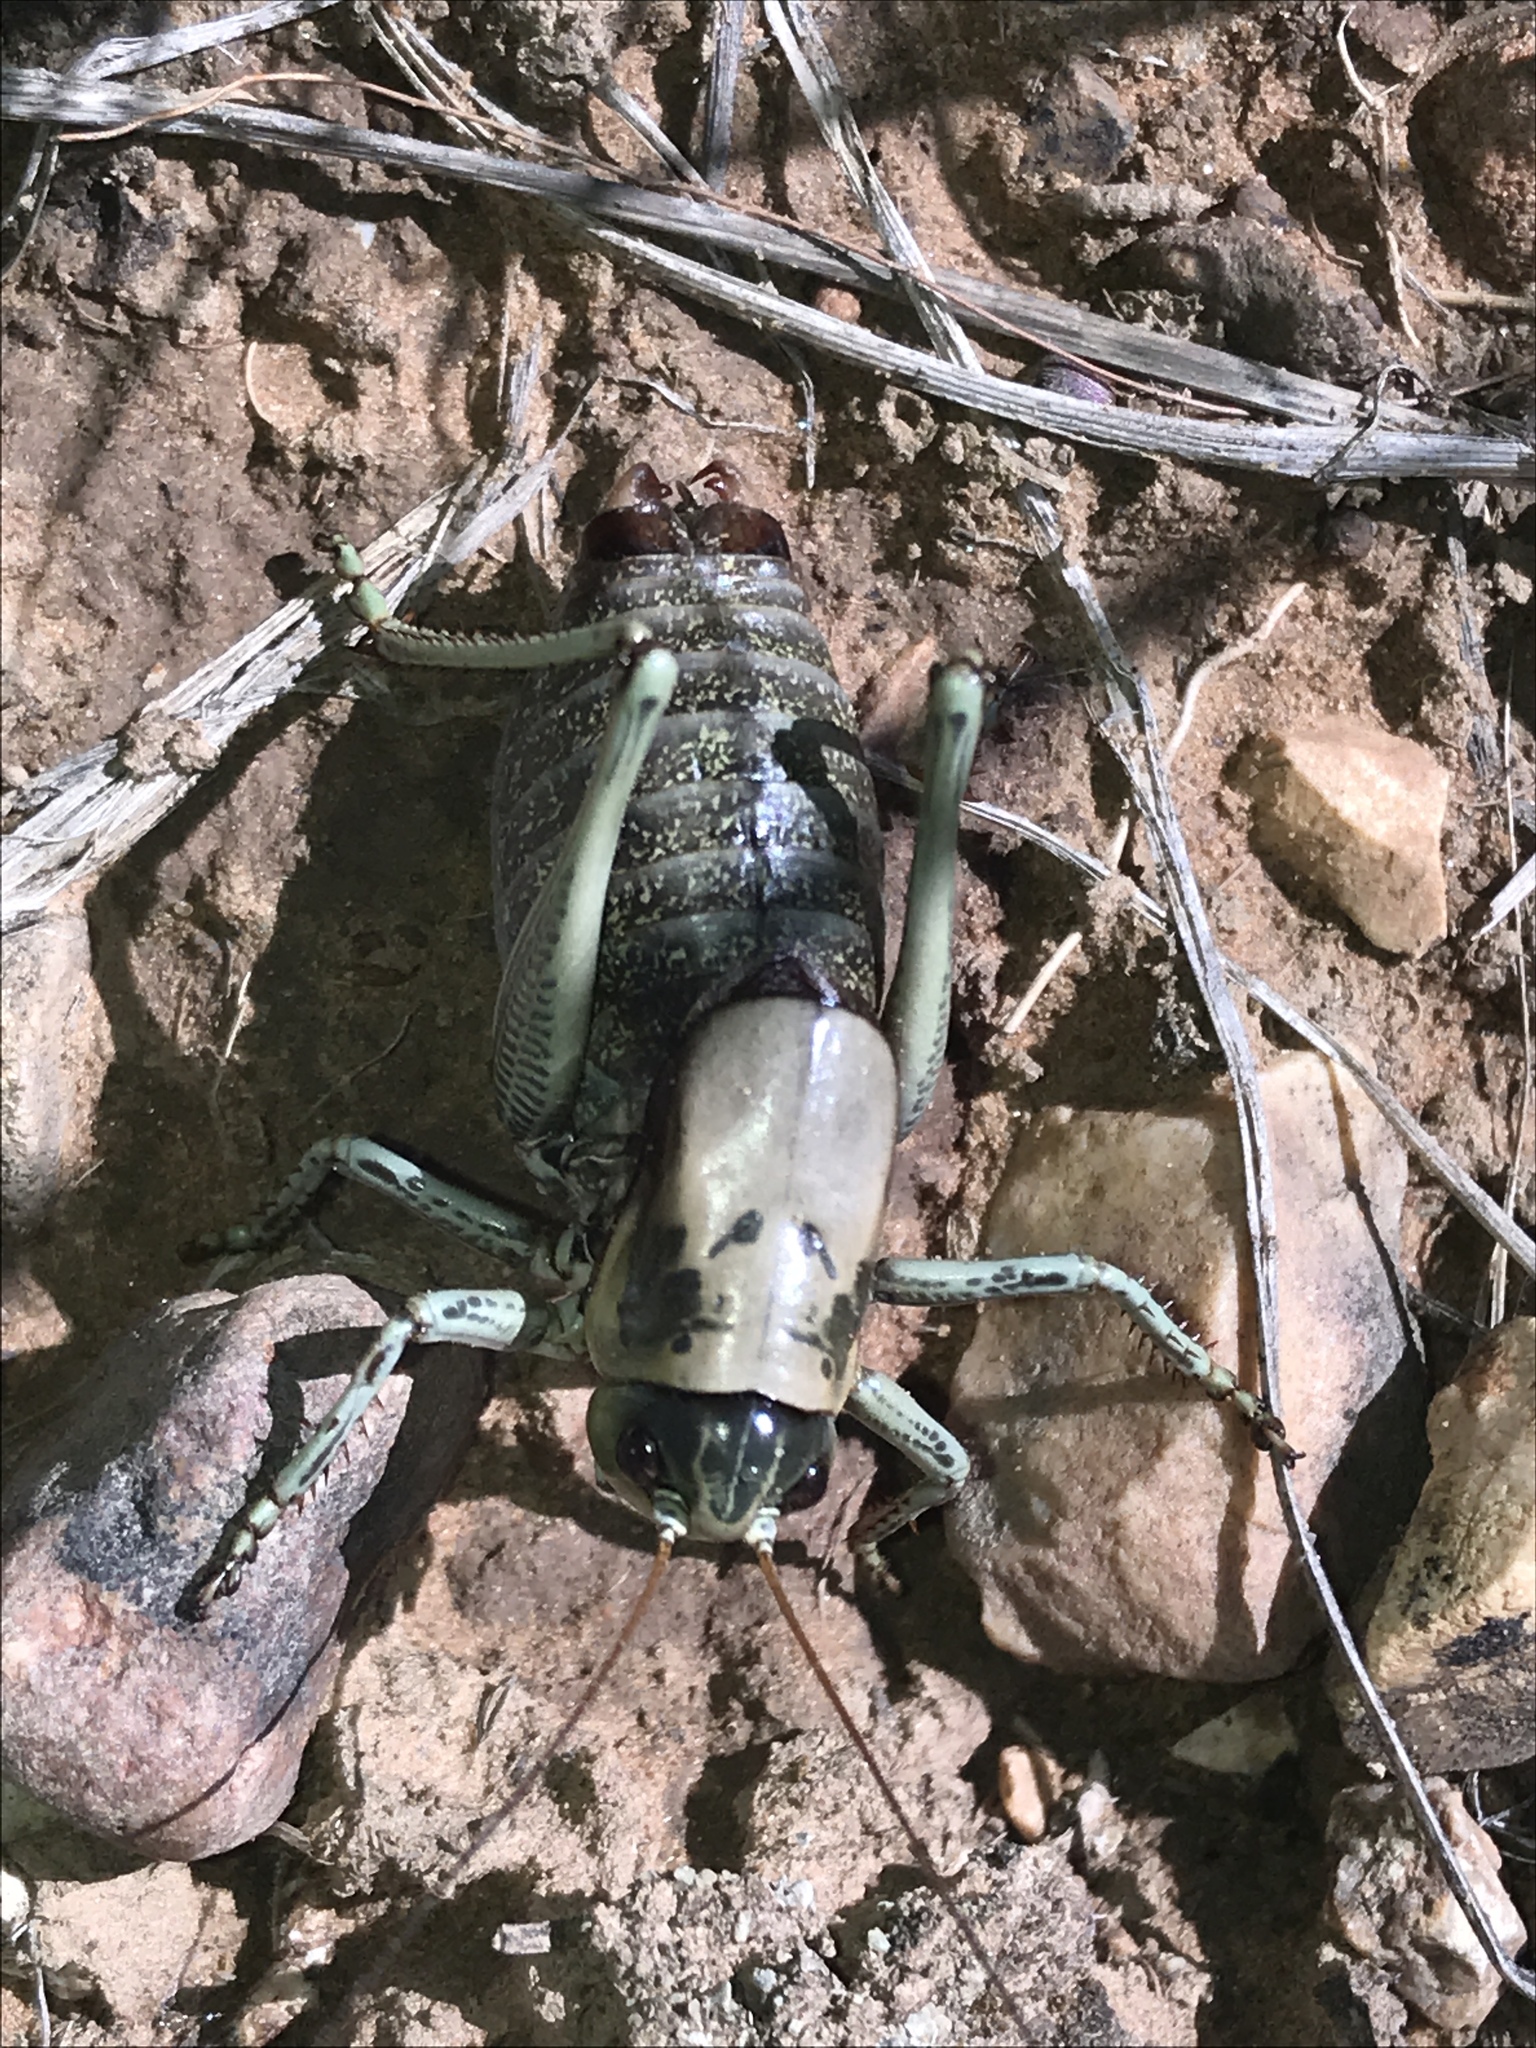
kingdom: Animalia
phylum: Arthropoda
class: Insecta
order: Orthoptera
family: Tettigoniidae
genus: Anabrus
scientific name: Anabrus simplex
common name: Mormon cricket
